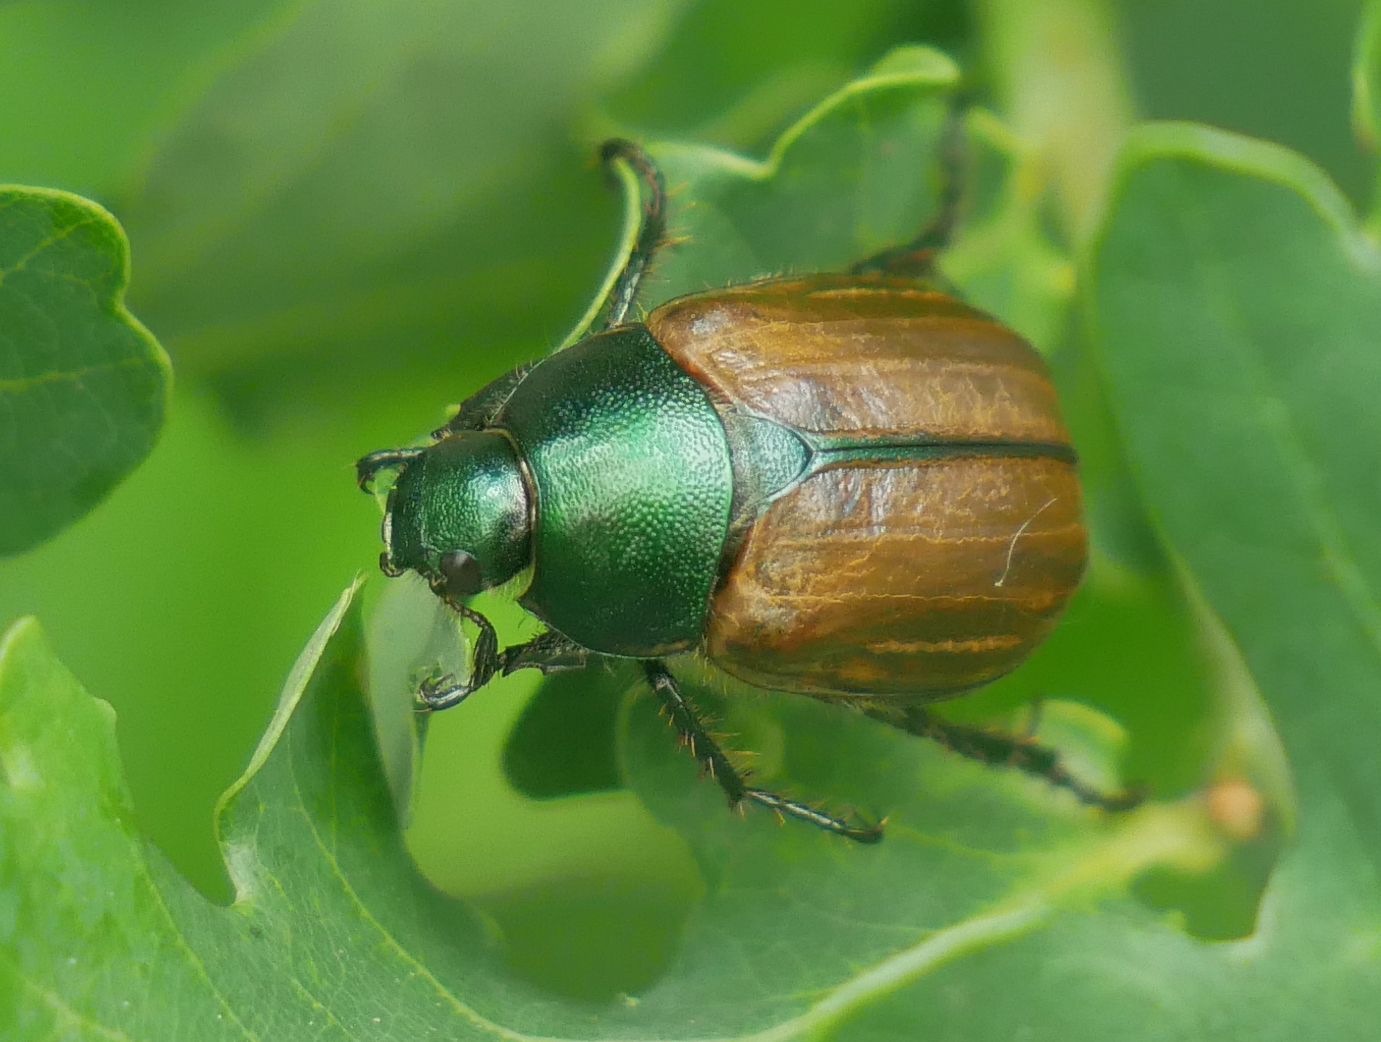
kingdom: Animalia
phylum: Arthropoda
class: Insecta
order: Coleoptera
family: Scarabaeidae
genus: Anomala
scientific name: Anomala dubia
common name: Dune chafer
